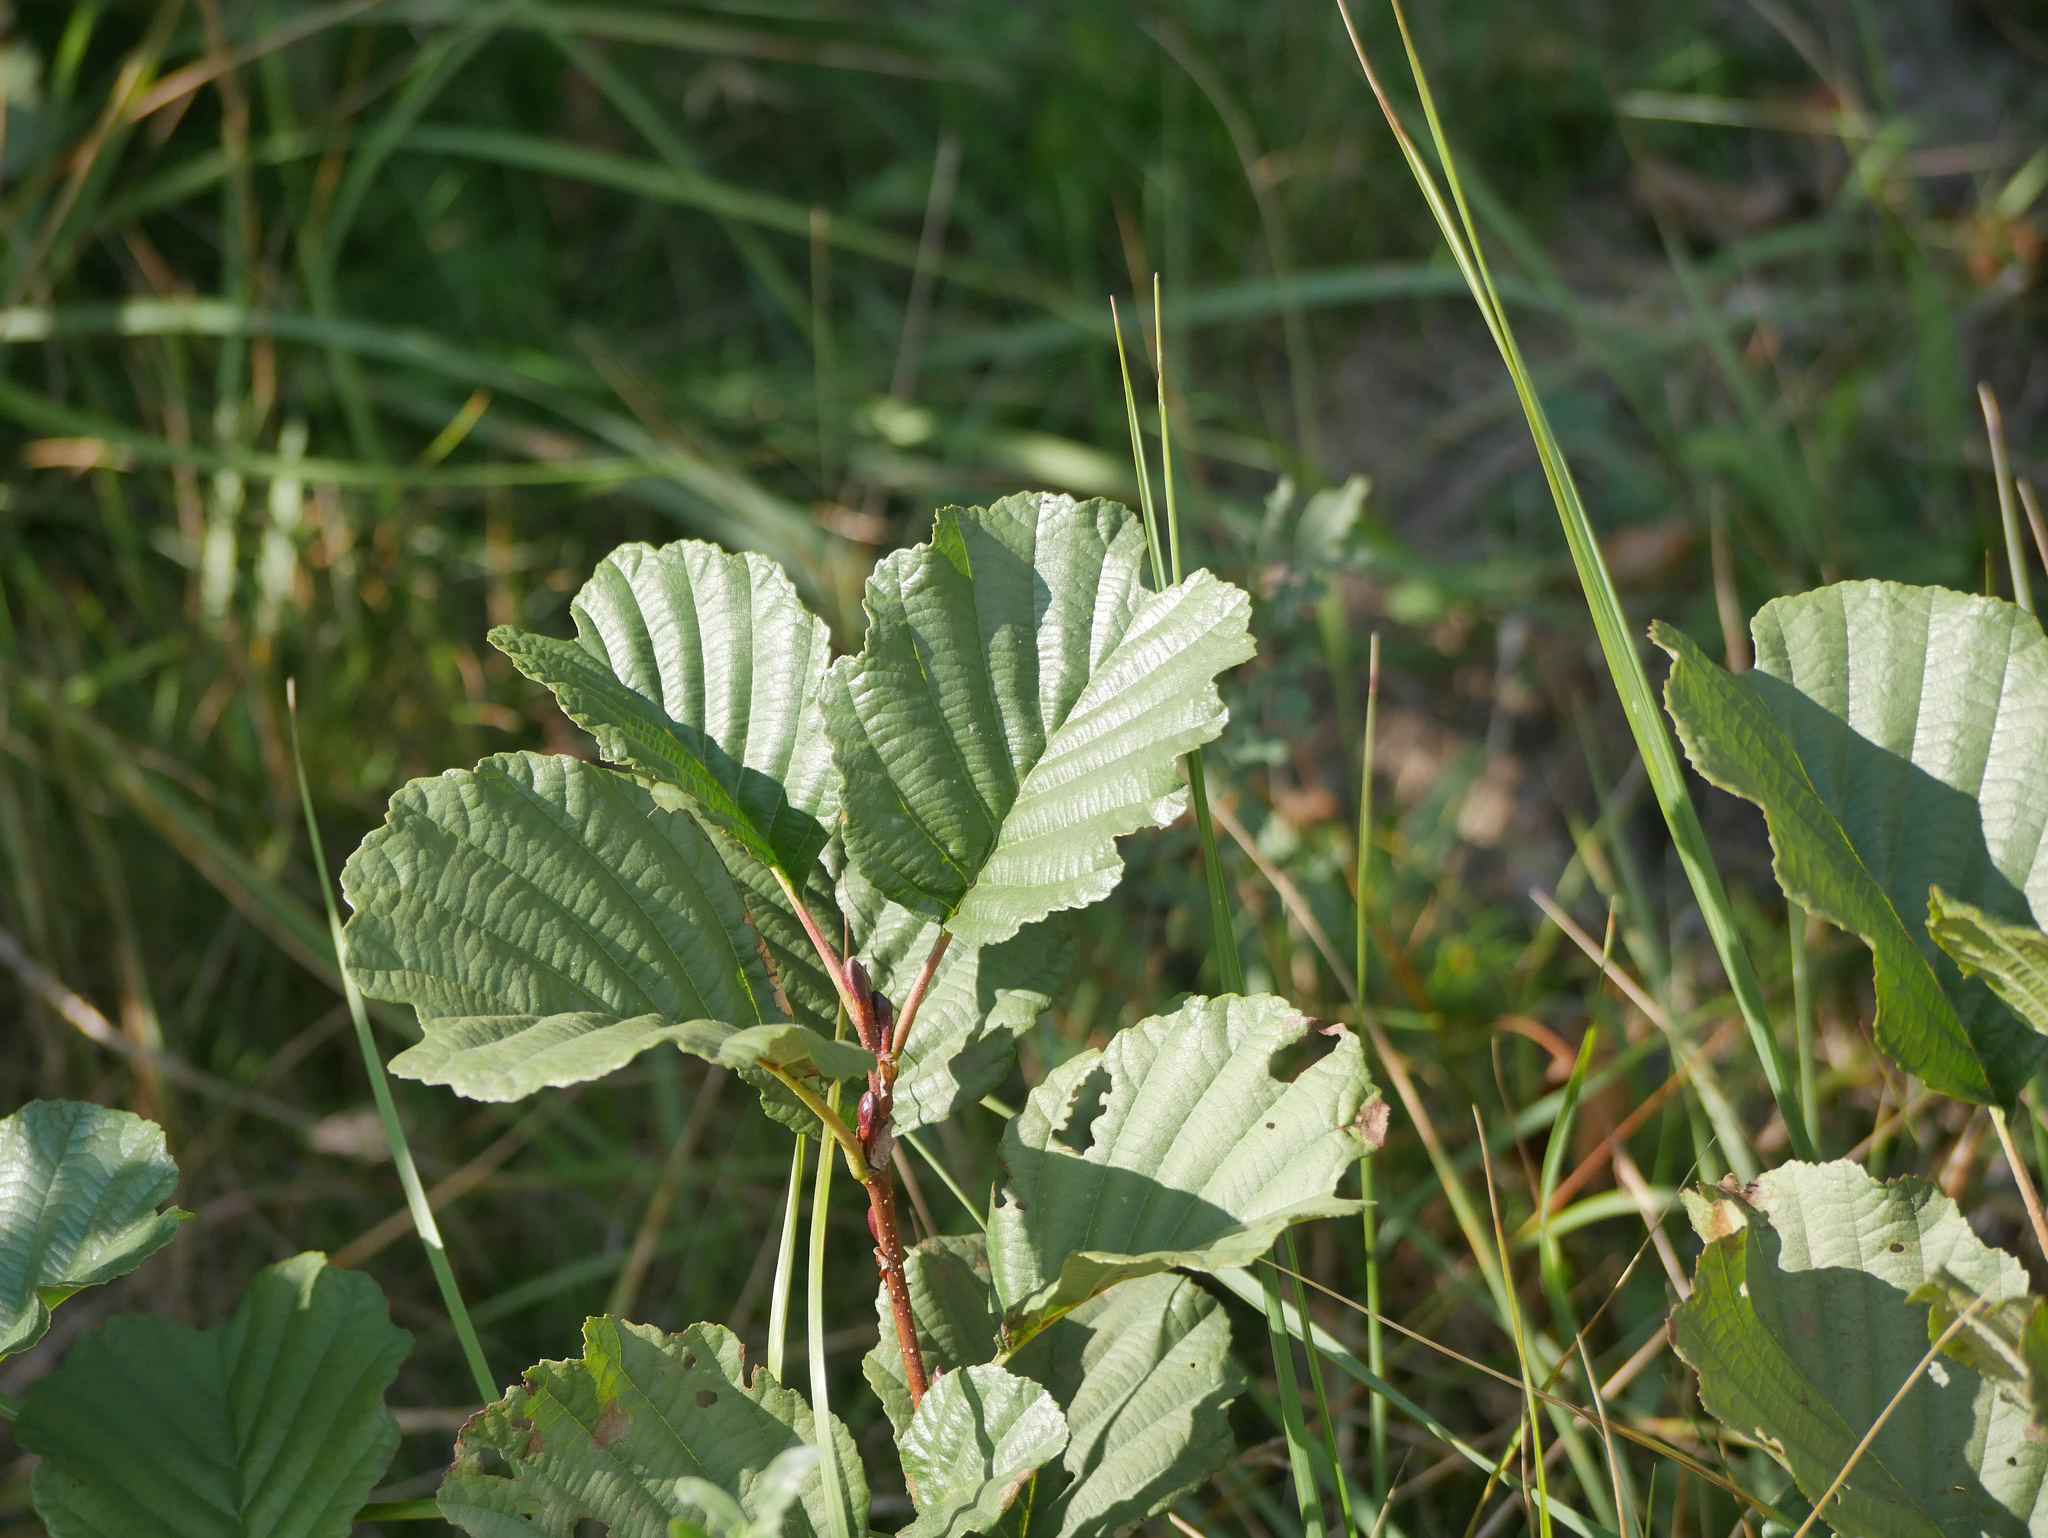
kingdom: Plantae
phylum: Tracheophyta
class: Magnoliopsida
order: Fagales
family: Betulaceae
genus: Alnus
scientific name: Alnus glutinosa
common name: Black alder
